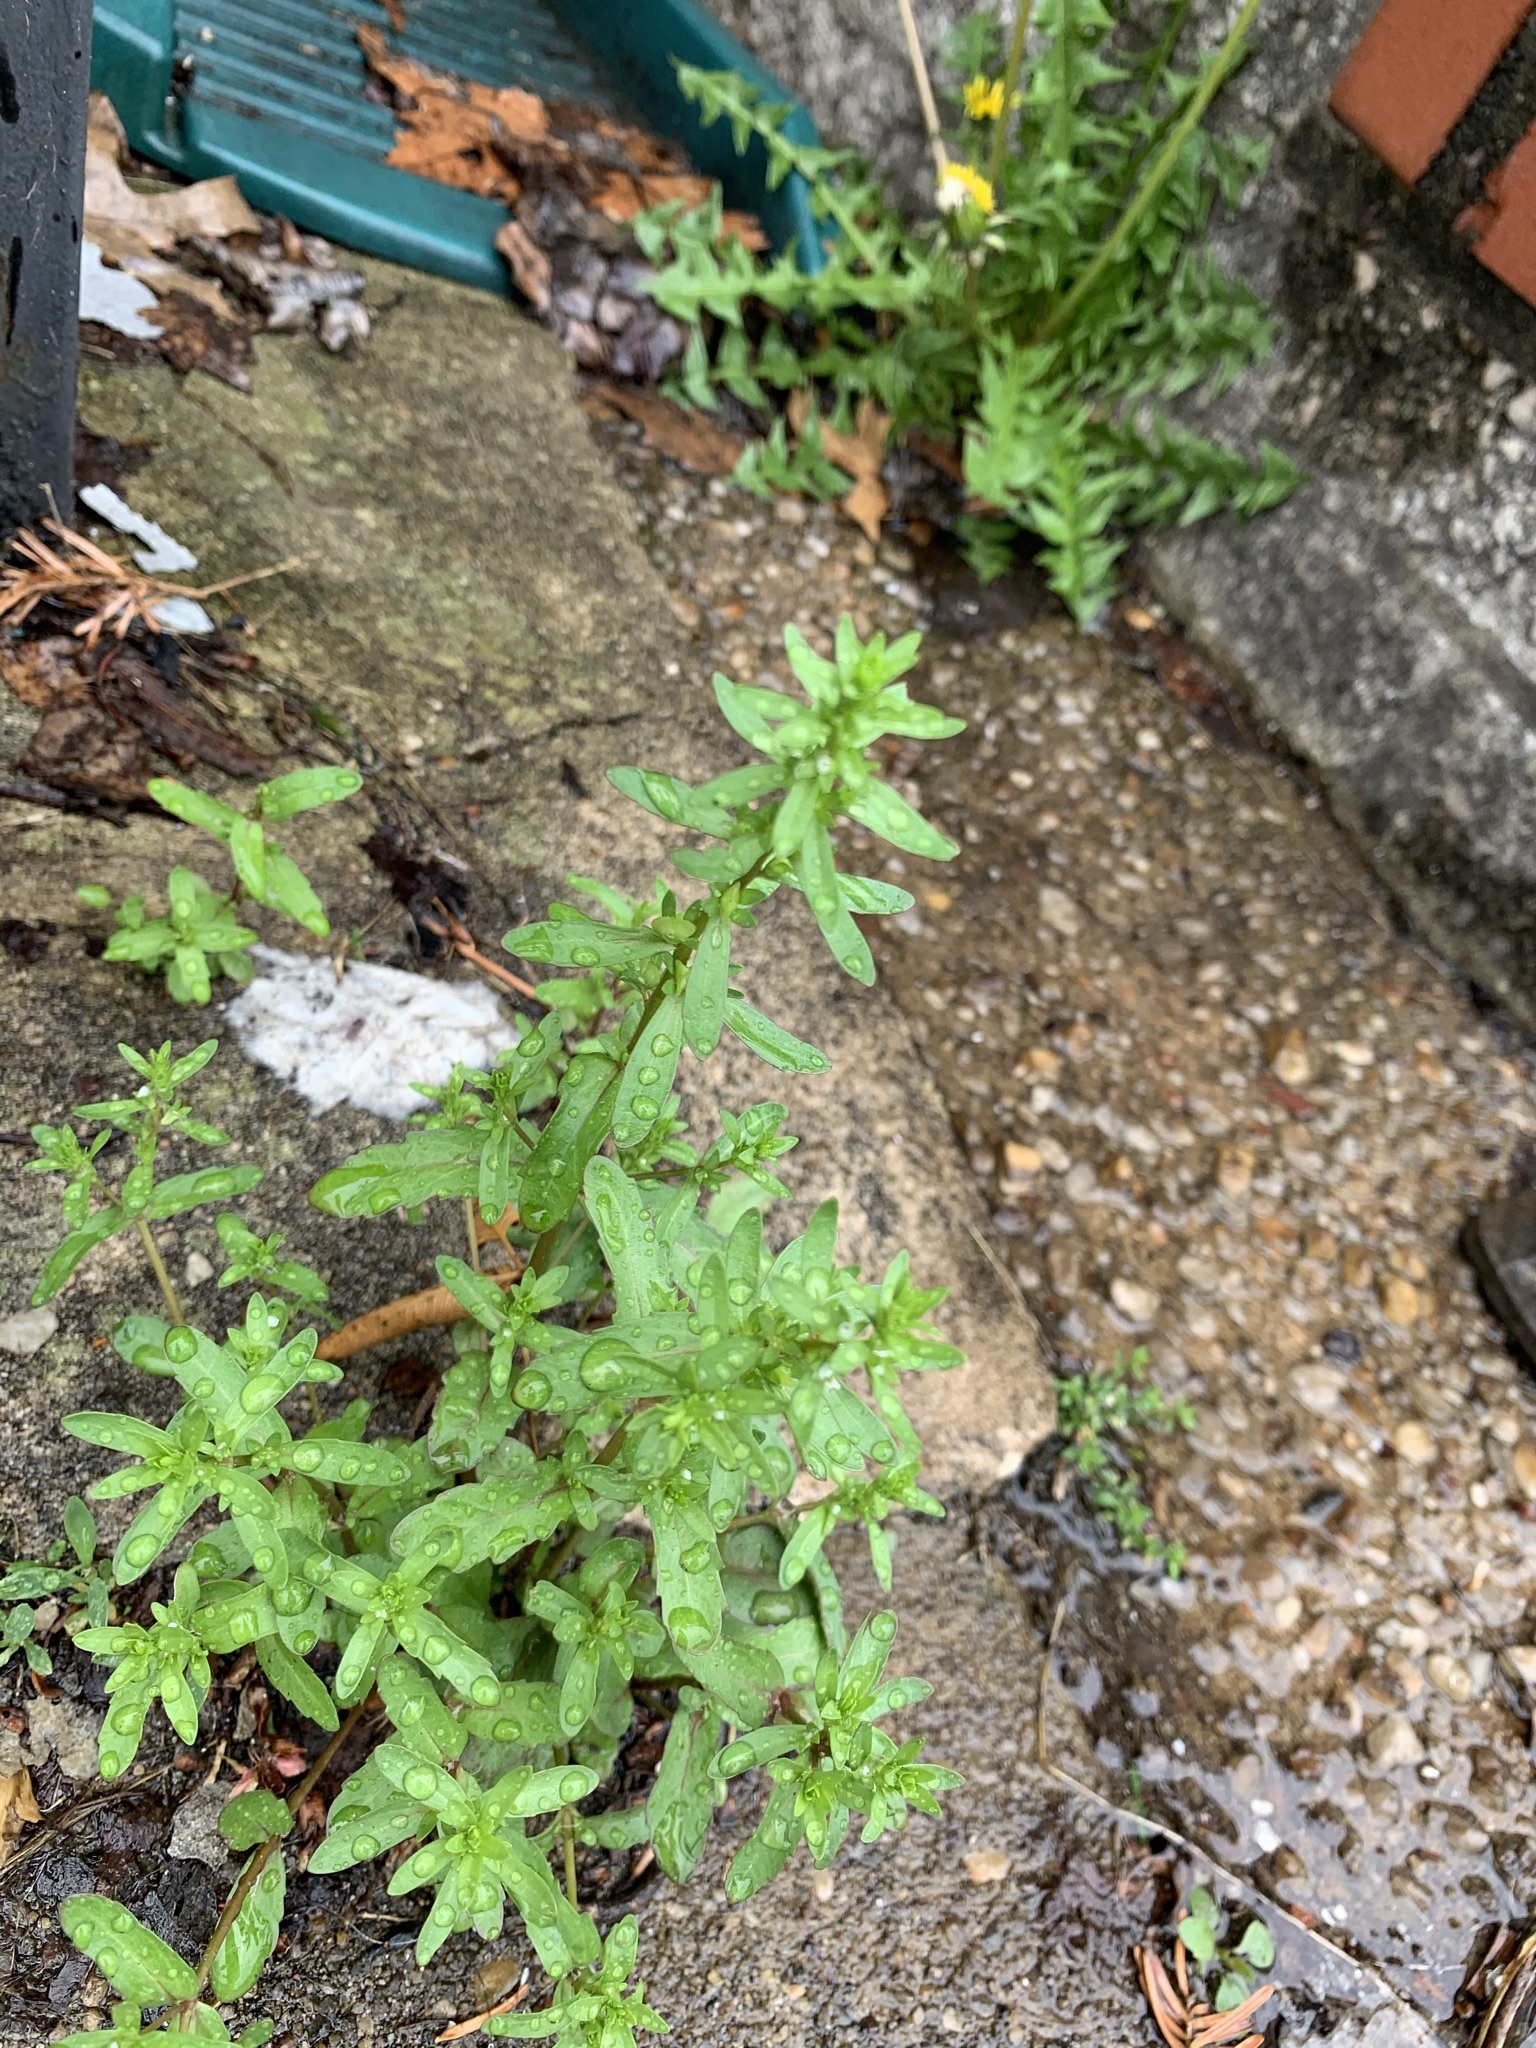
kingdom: Plantae
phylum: Tracheophyta
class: Magnoliopsida
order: Lamiales
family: Plantaginaceae
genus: Veronica
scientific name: Veronica peregrina
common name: Neckweed
